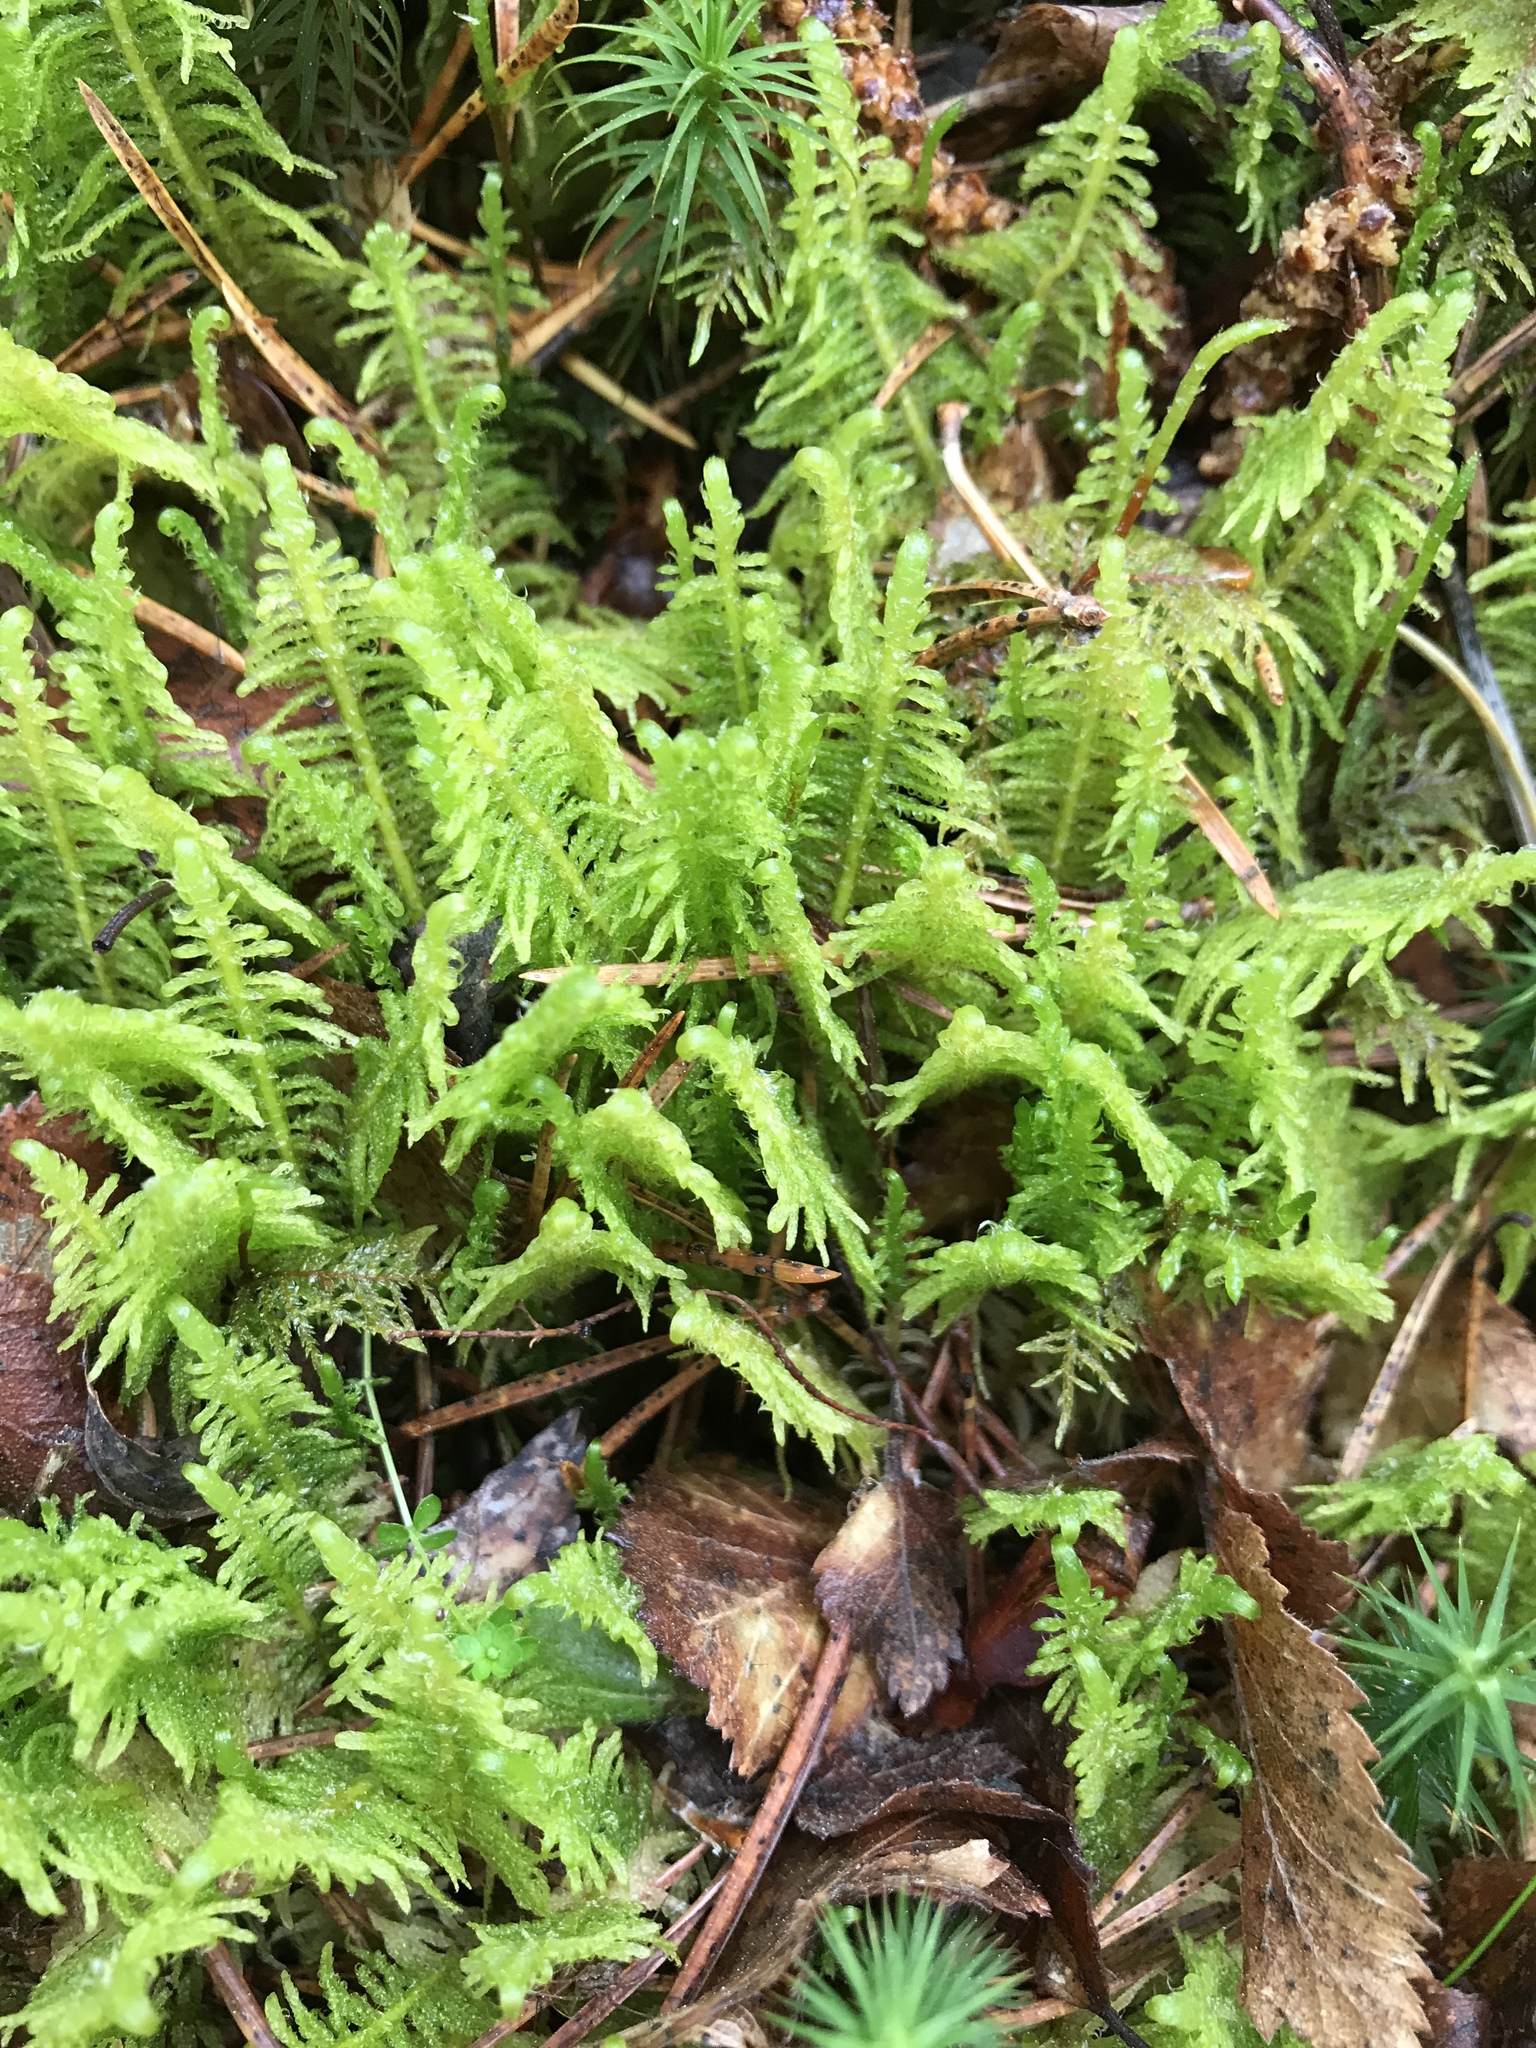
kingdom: Plantae
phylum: Bryophyta
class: Bryopsida
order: Hypnales
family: Pylaisiaceae
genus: Ptilium
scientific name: Ptilium crista-castrensis
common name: Knight's plume moss
